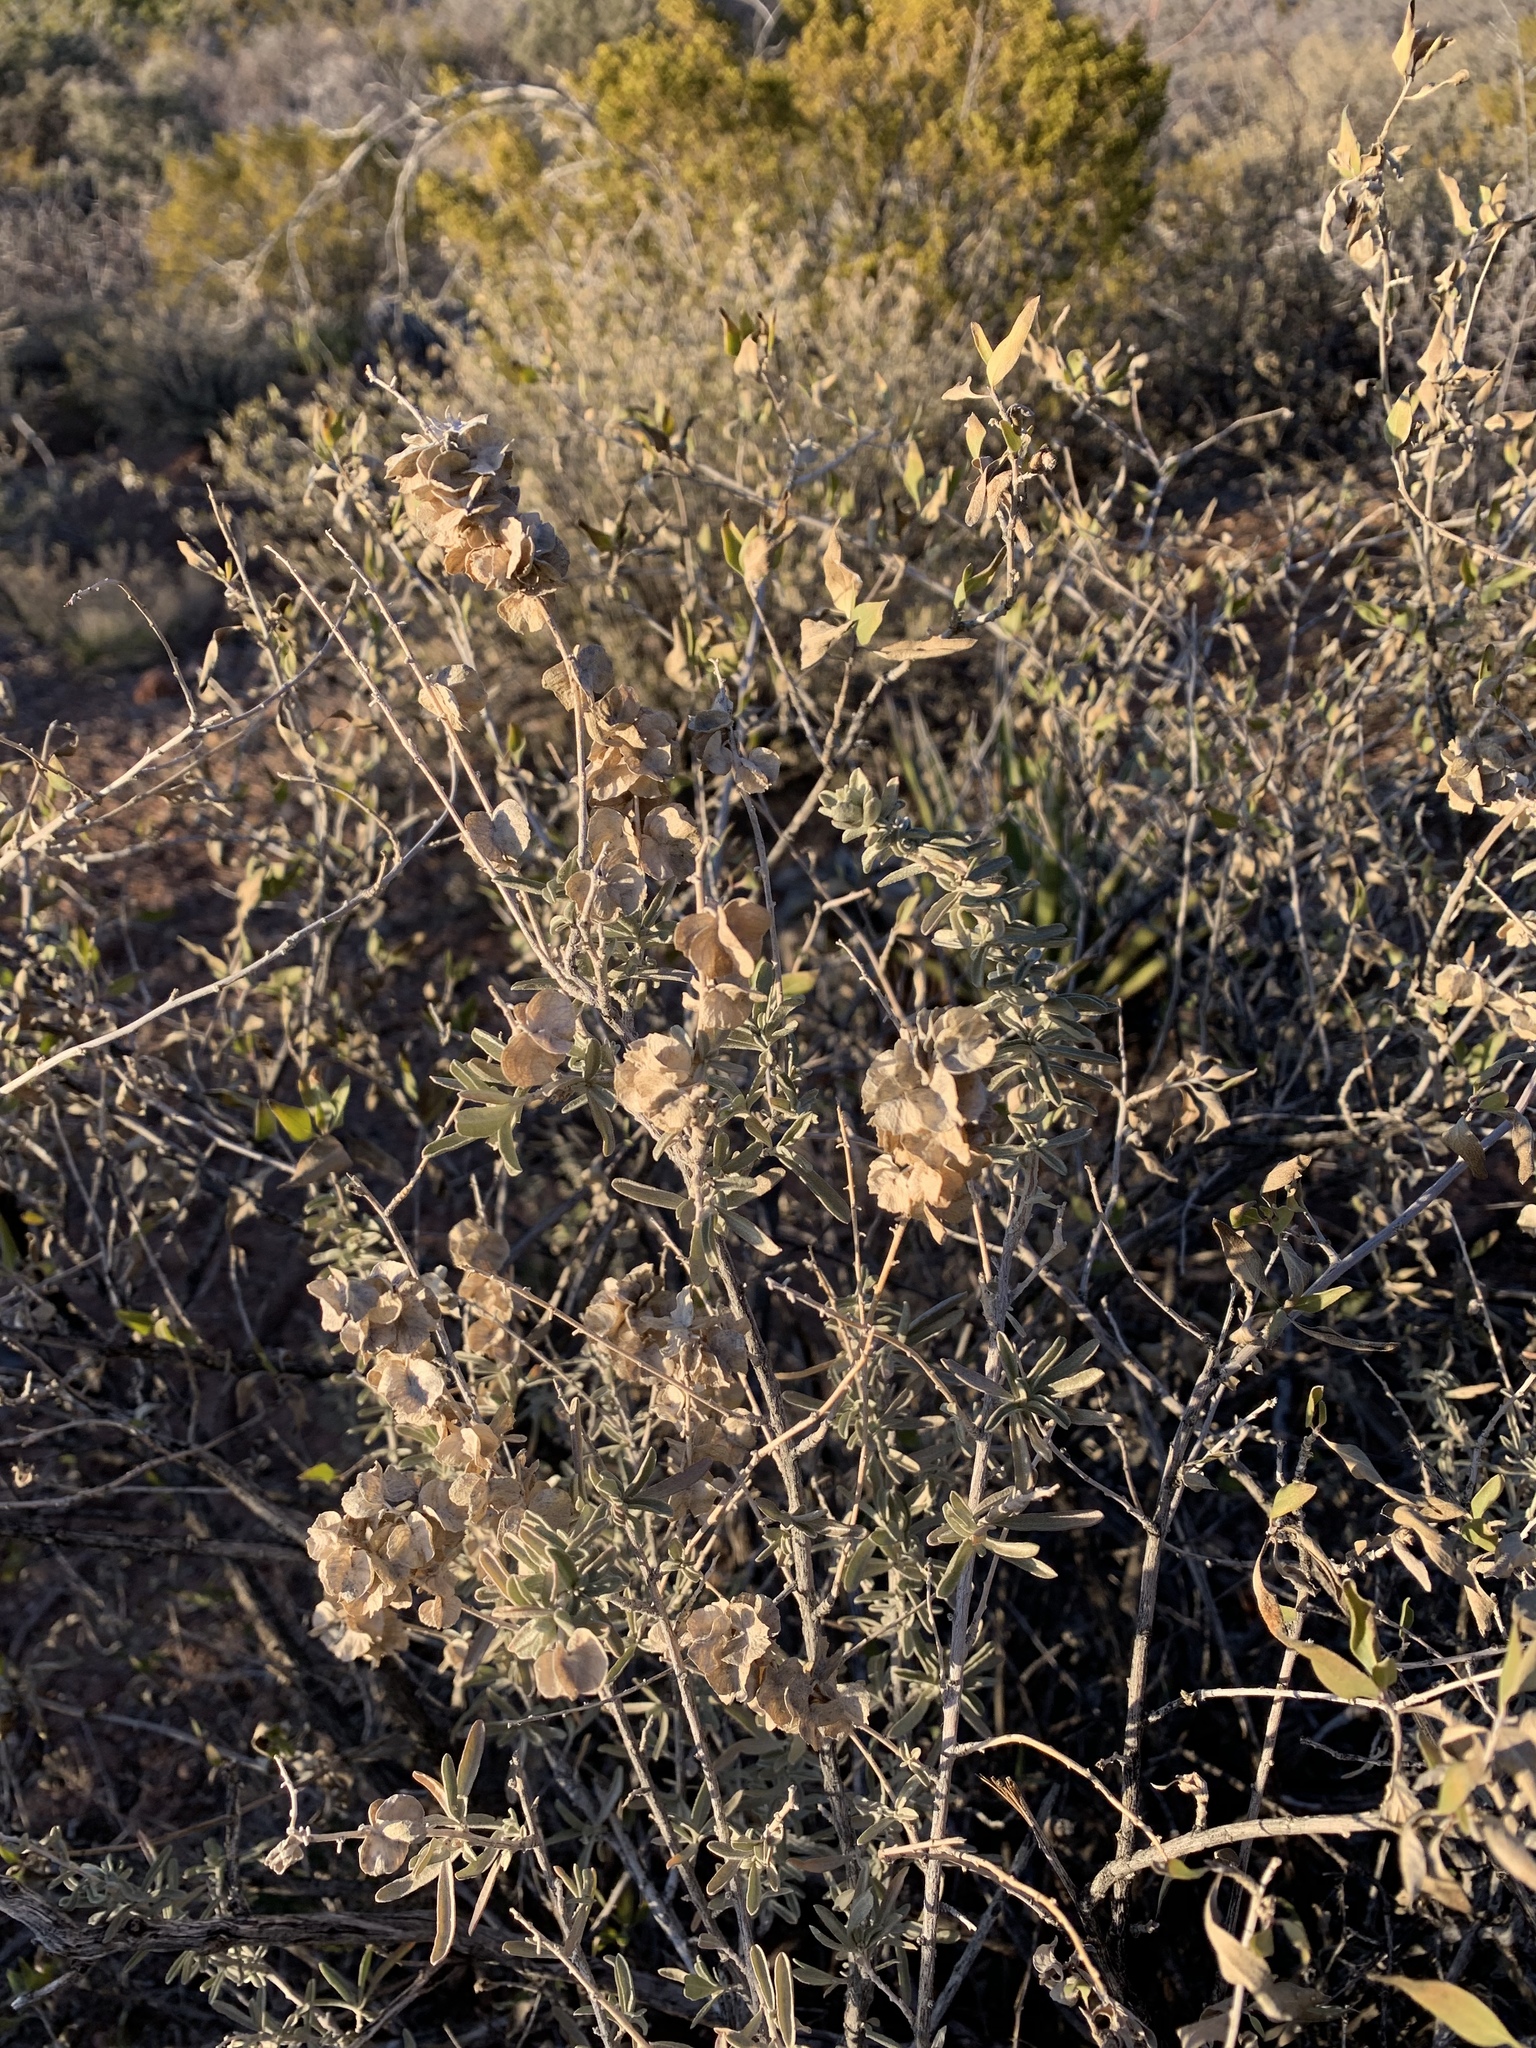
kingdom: Plantae
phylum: Tracheophyta
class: Magnoliopsida
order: Caryophyllales
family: Amaranthaceae
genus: Atriplex
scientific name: Atriplex canescens
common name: Four-wing saltbush
